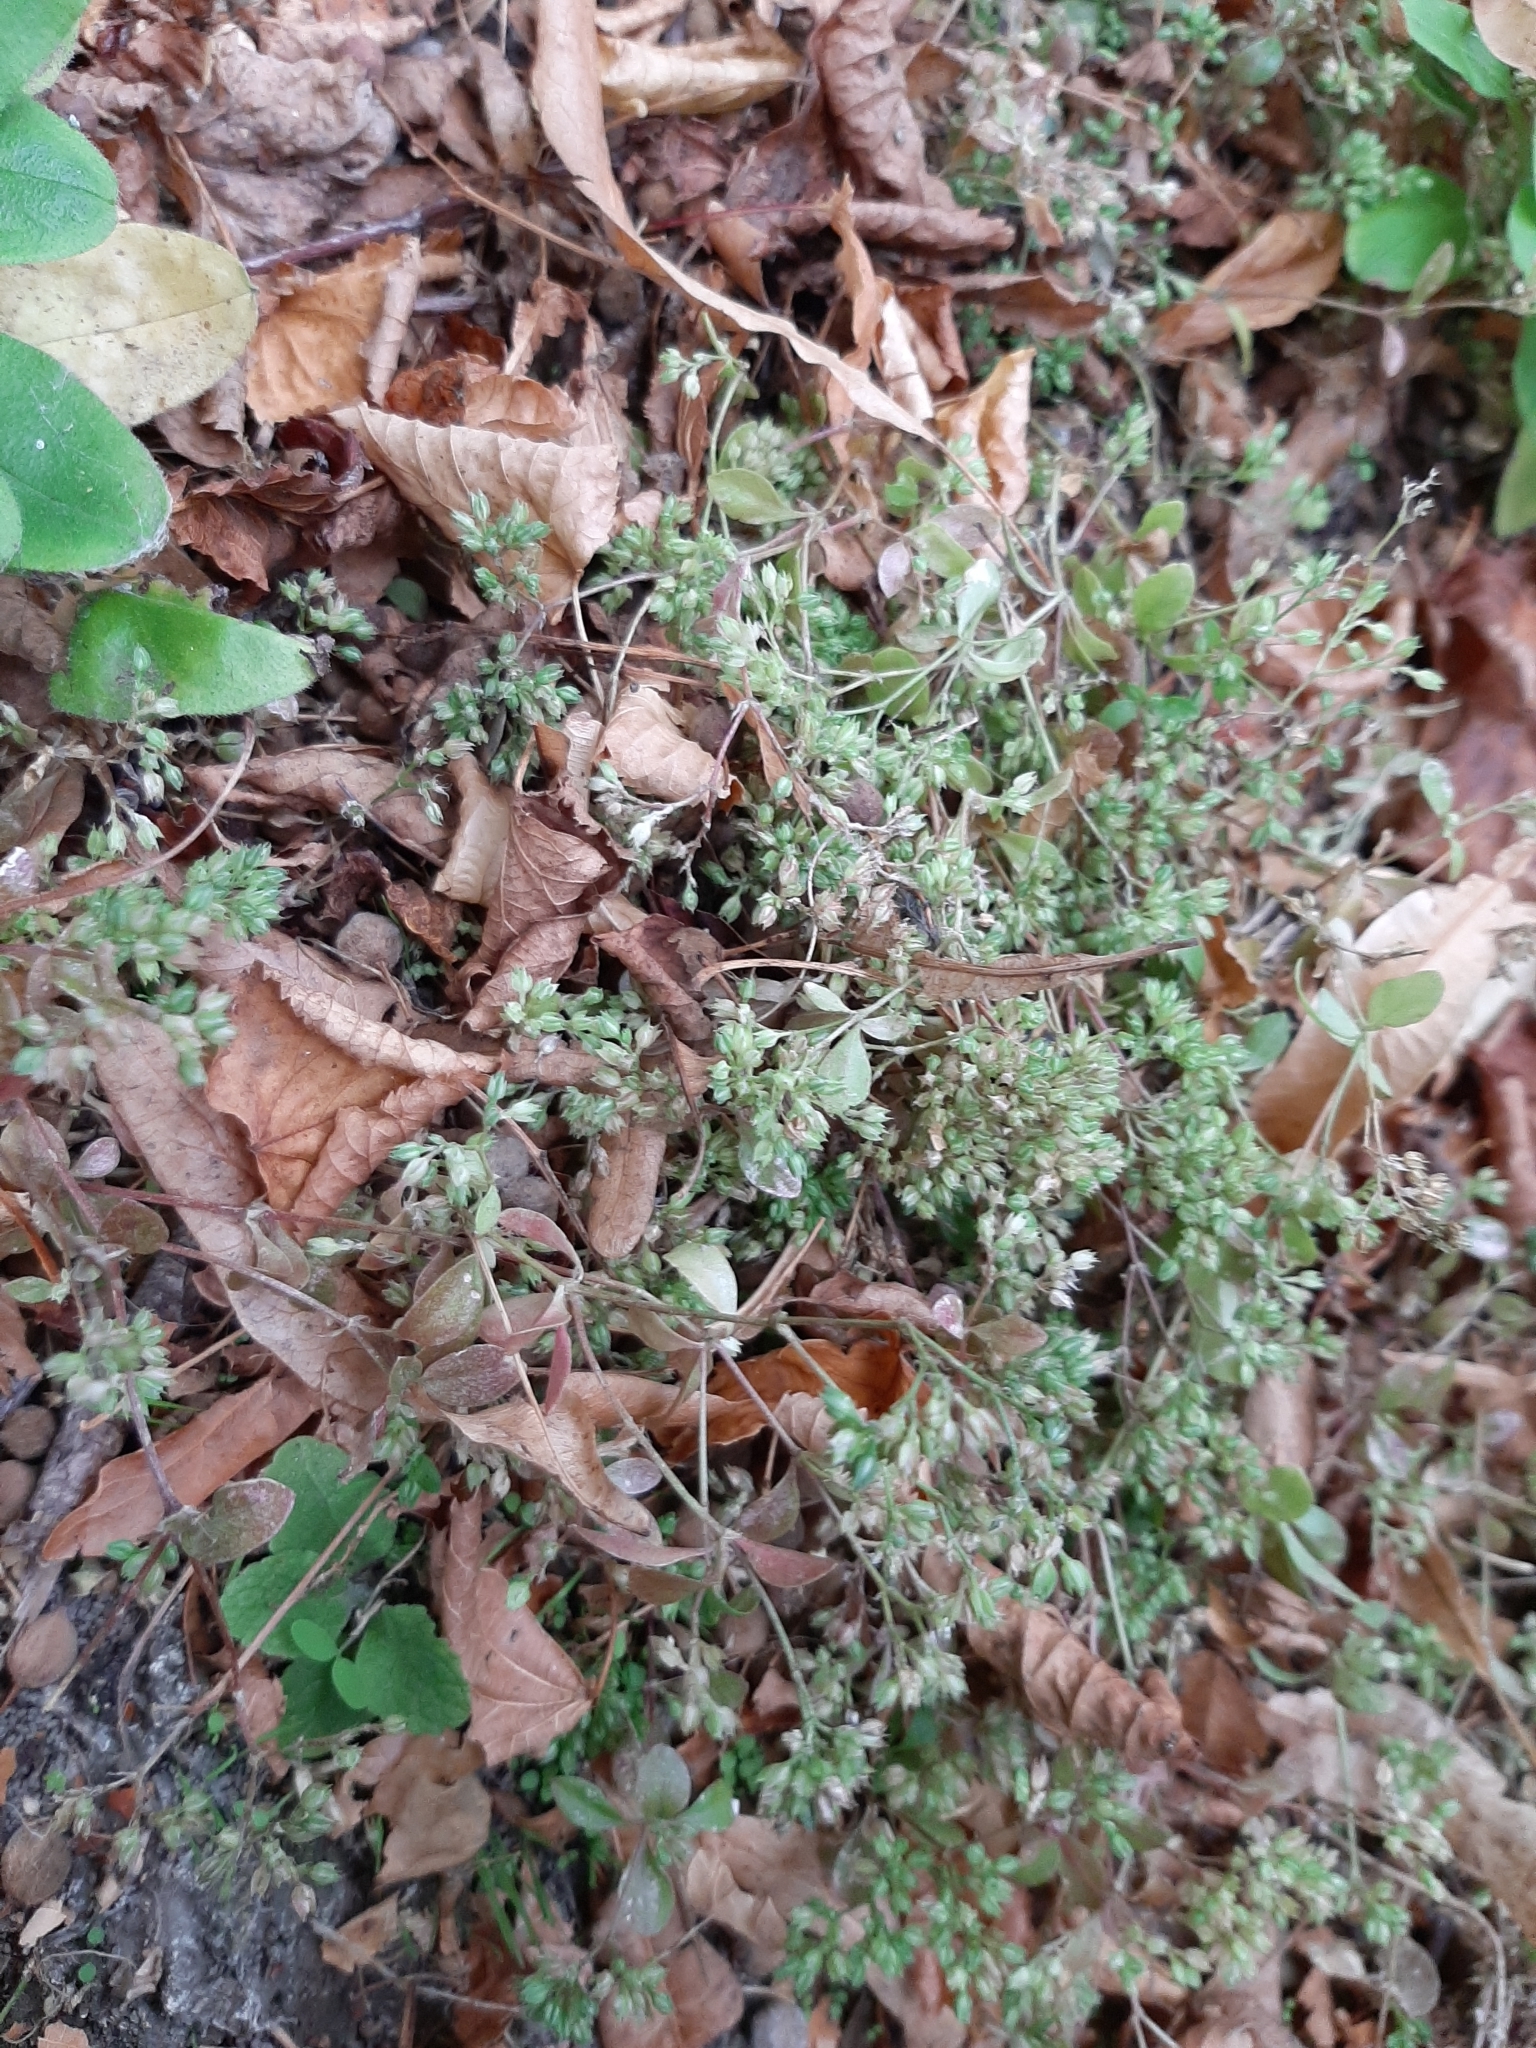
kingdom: Plantae
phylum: Tracheophyta
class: Magnoliopsida
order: Caryophyllales
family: Caryophyllaceae
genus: Polycarpon
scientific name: Polycarpon tetraphyllum
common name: Four-leaved all-seed
